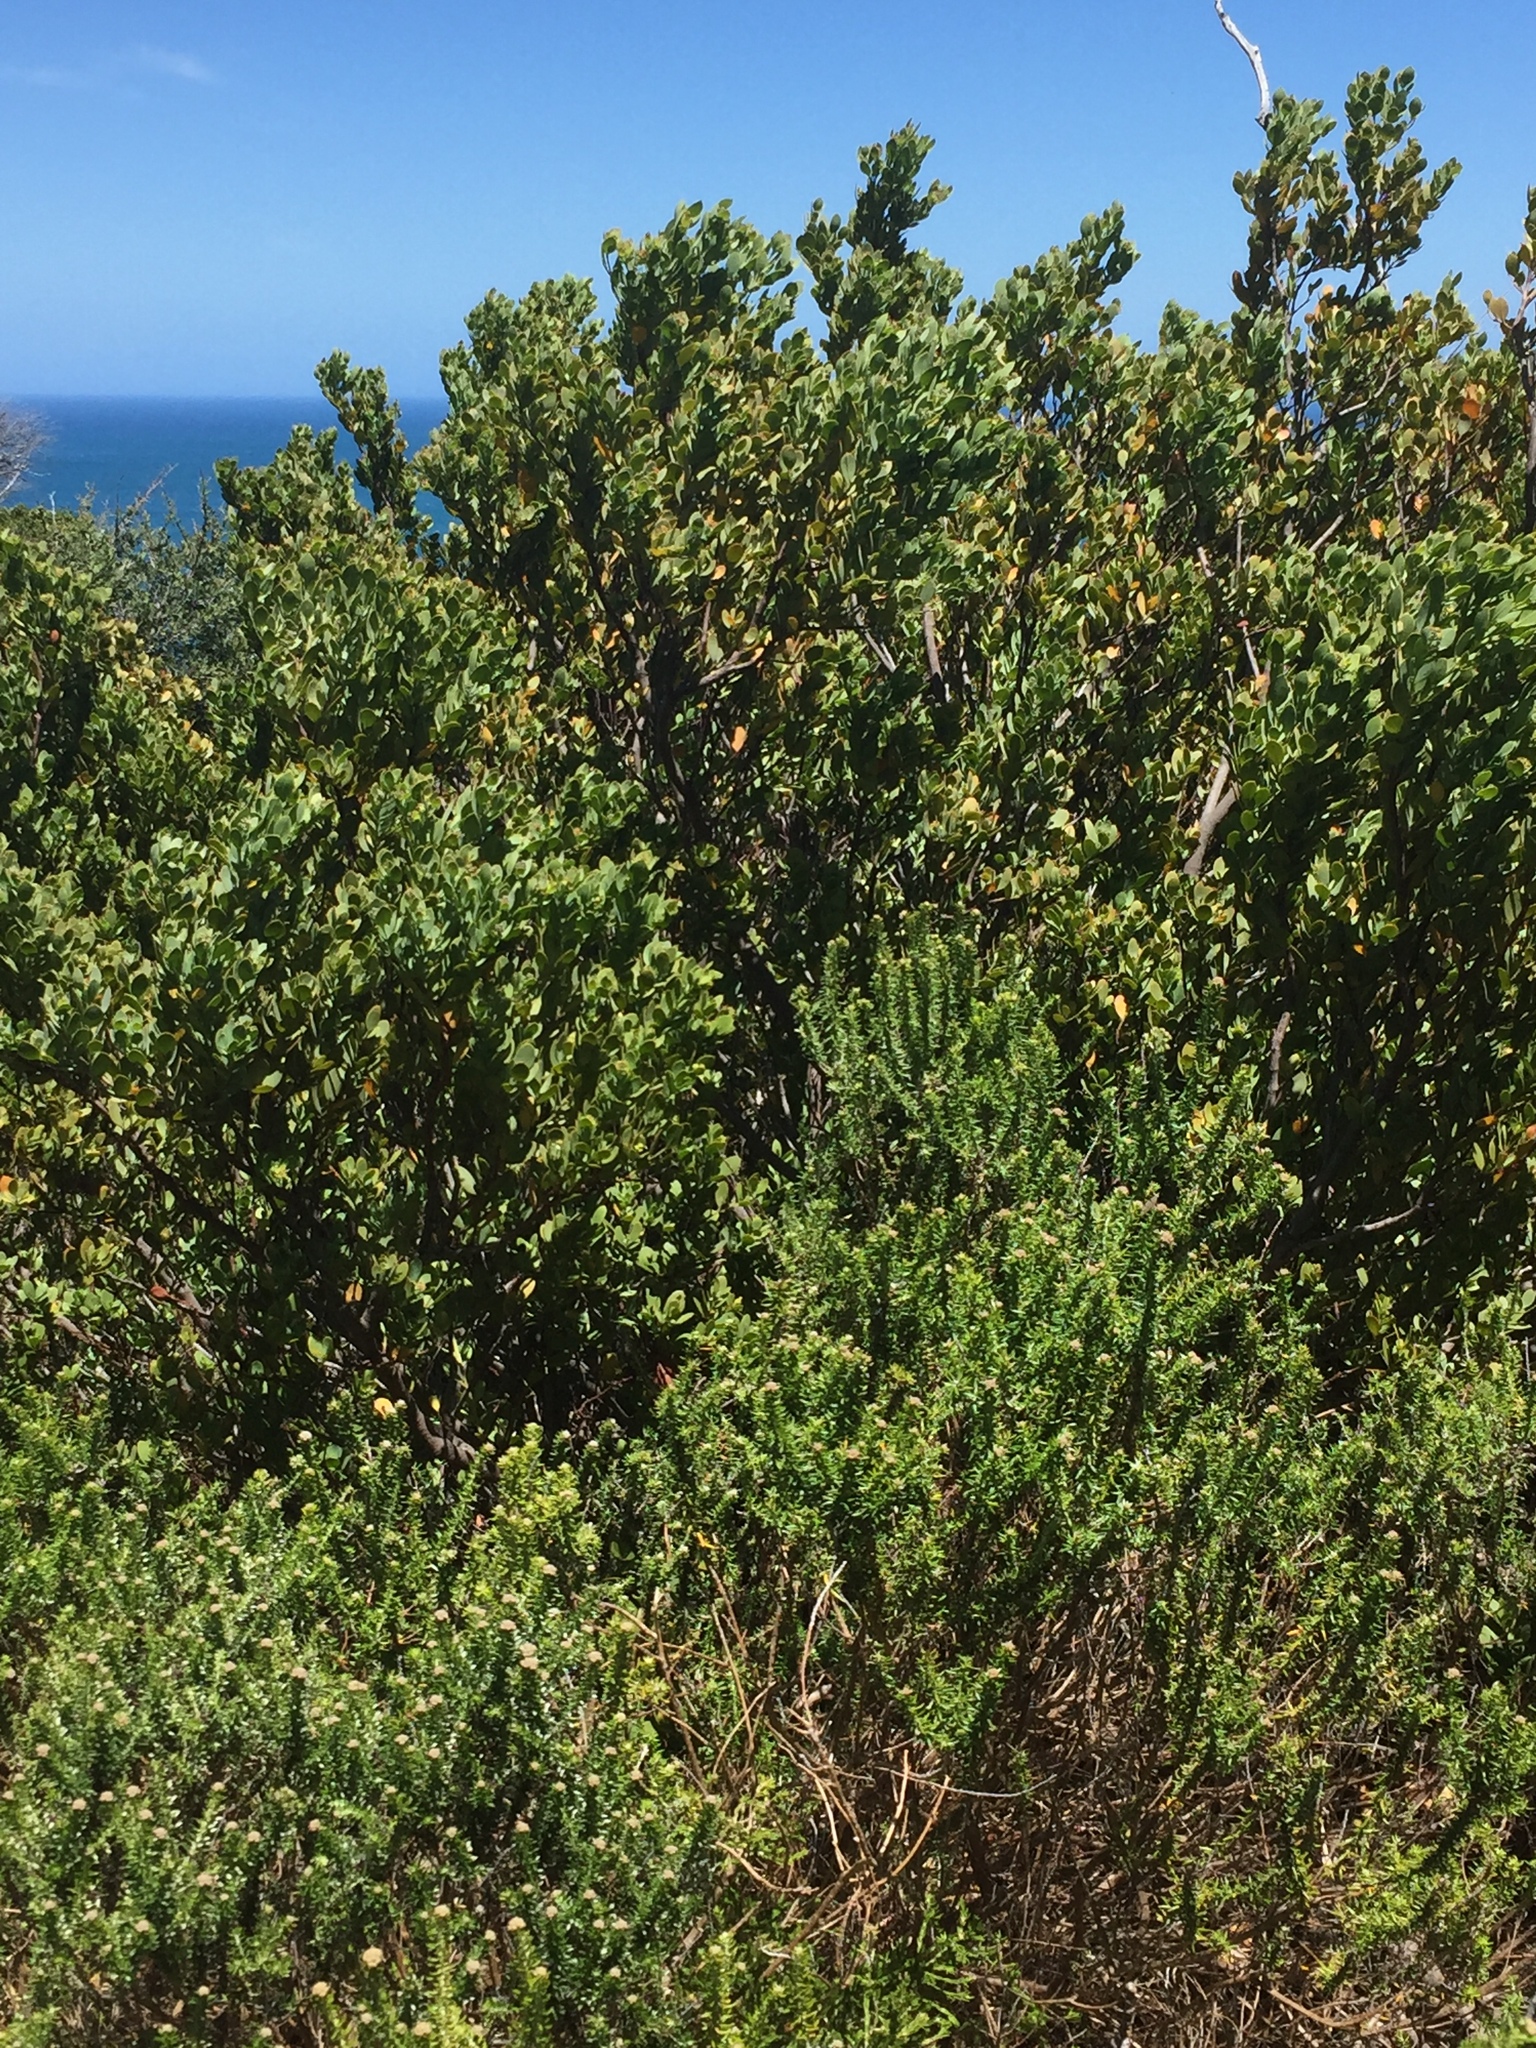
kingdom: Plantae
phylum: Tracheophyta
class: Magnoliopsida
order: Santalales
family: Santalaceae
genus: Osyris
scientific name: Osyris compressa
